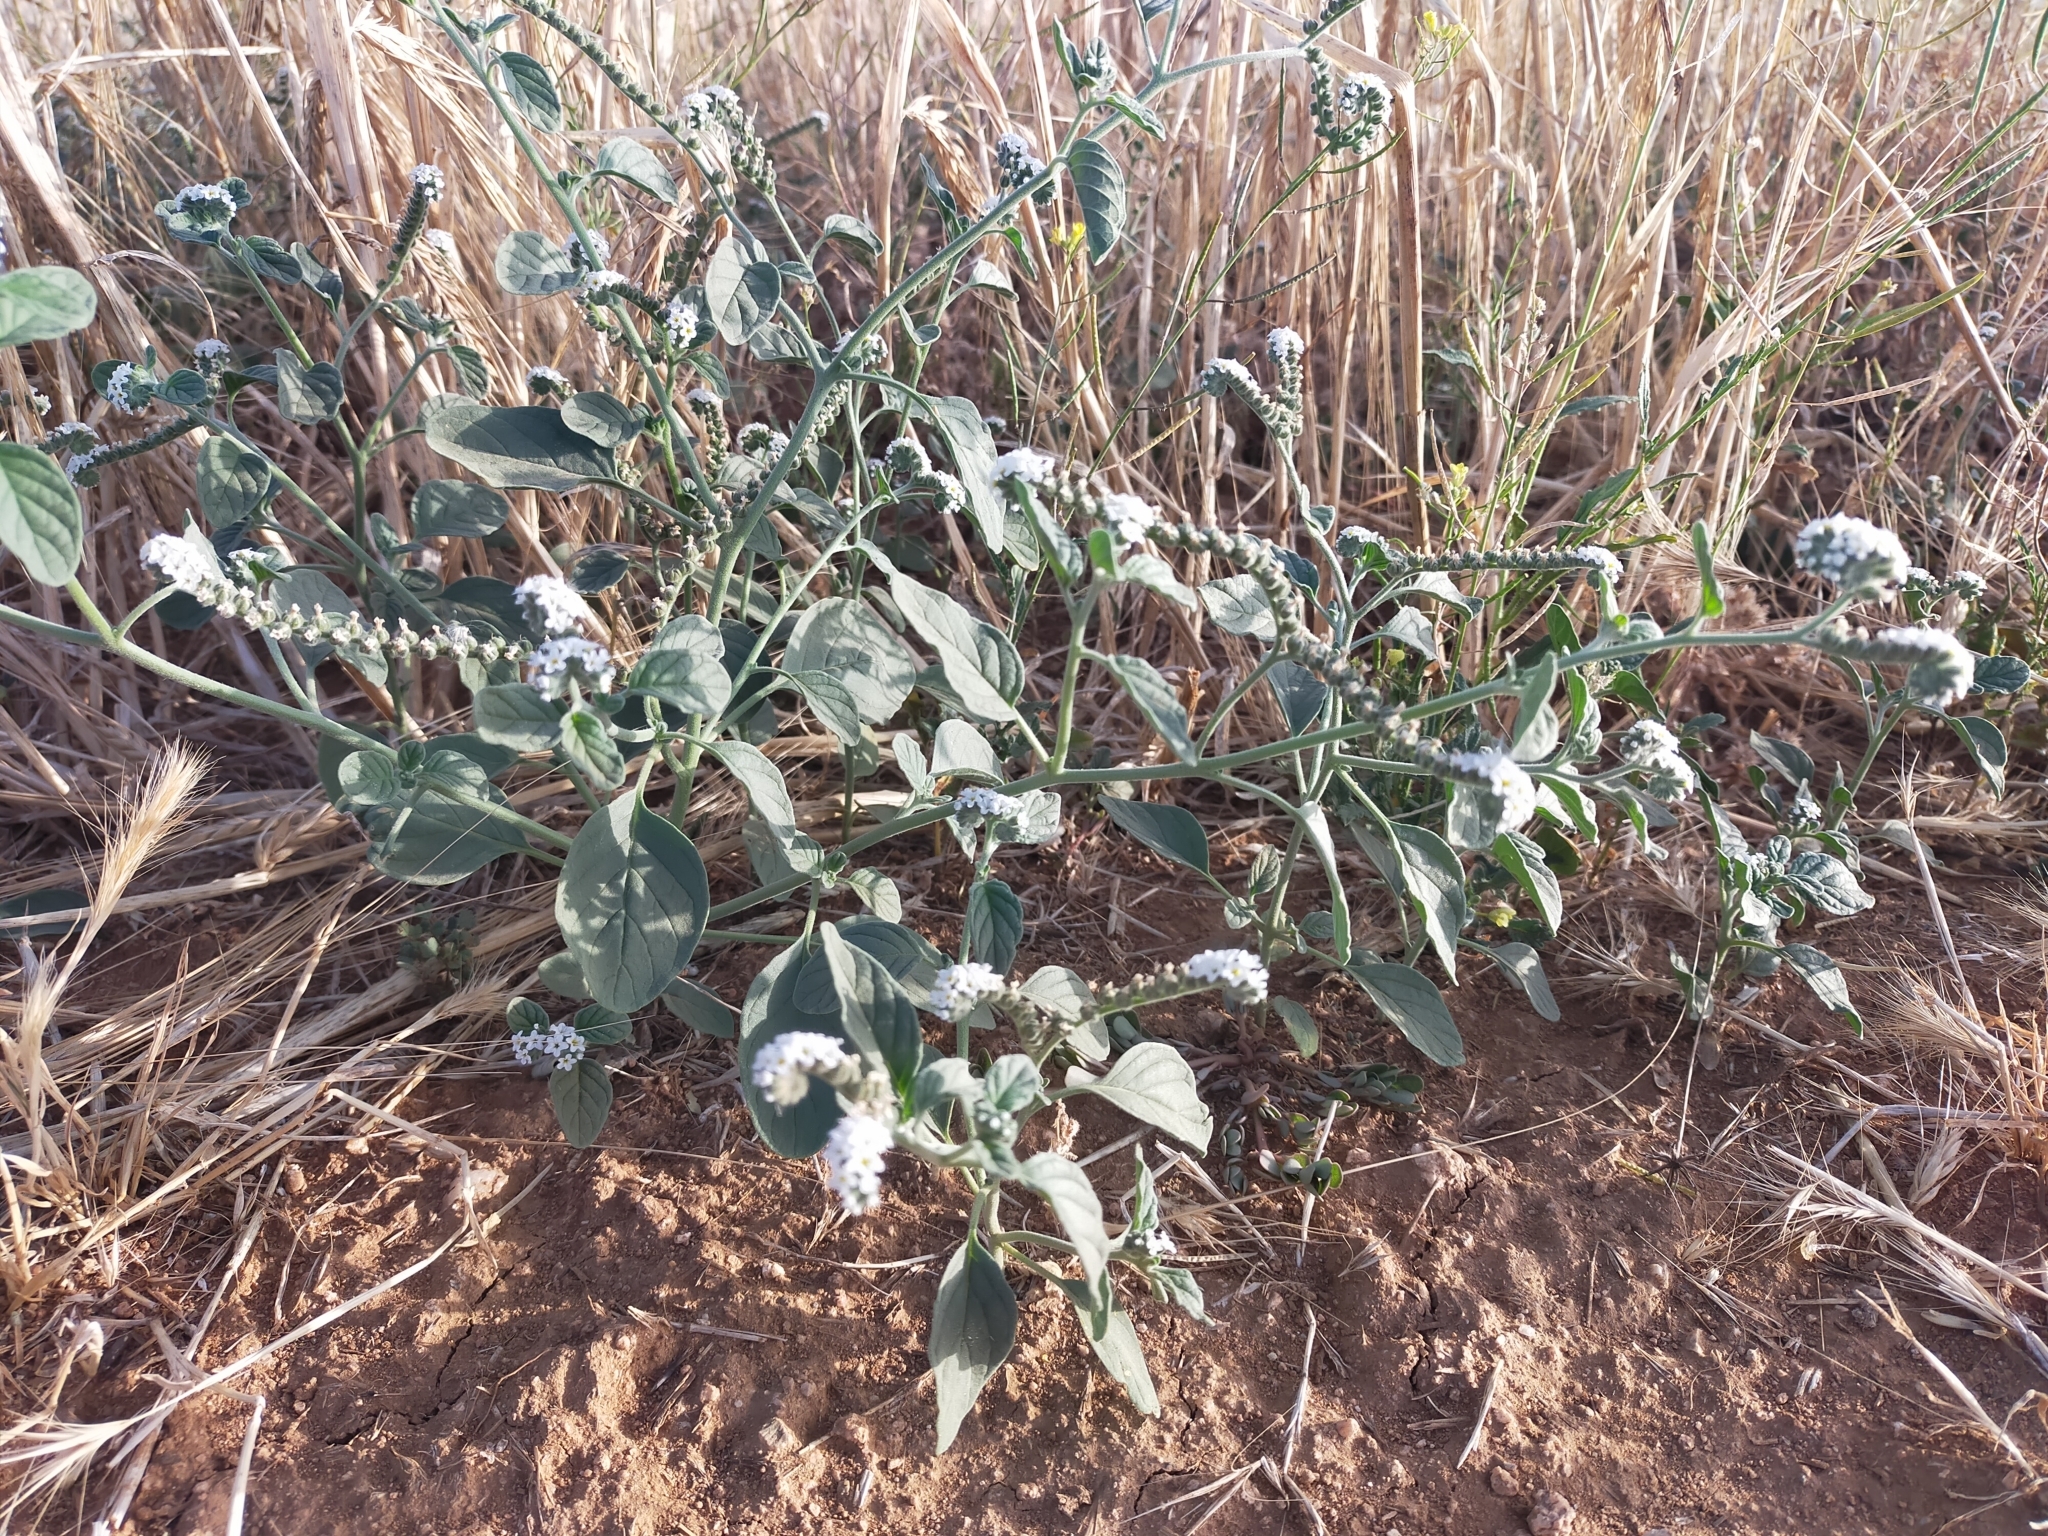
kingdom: Plantae
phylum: Tracheophyta
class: Magnoliopsida
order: Boraginales
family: Heliotropiaceae
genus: Heliotropium
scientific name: Heliotropium europaeum
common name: European heliotrope
